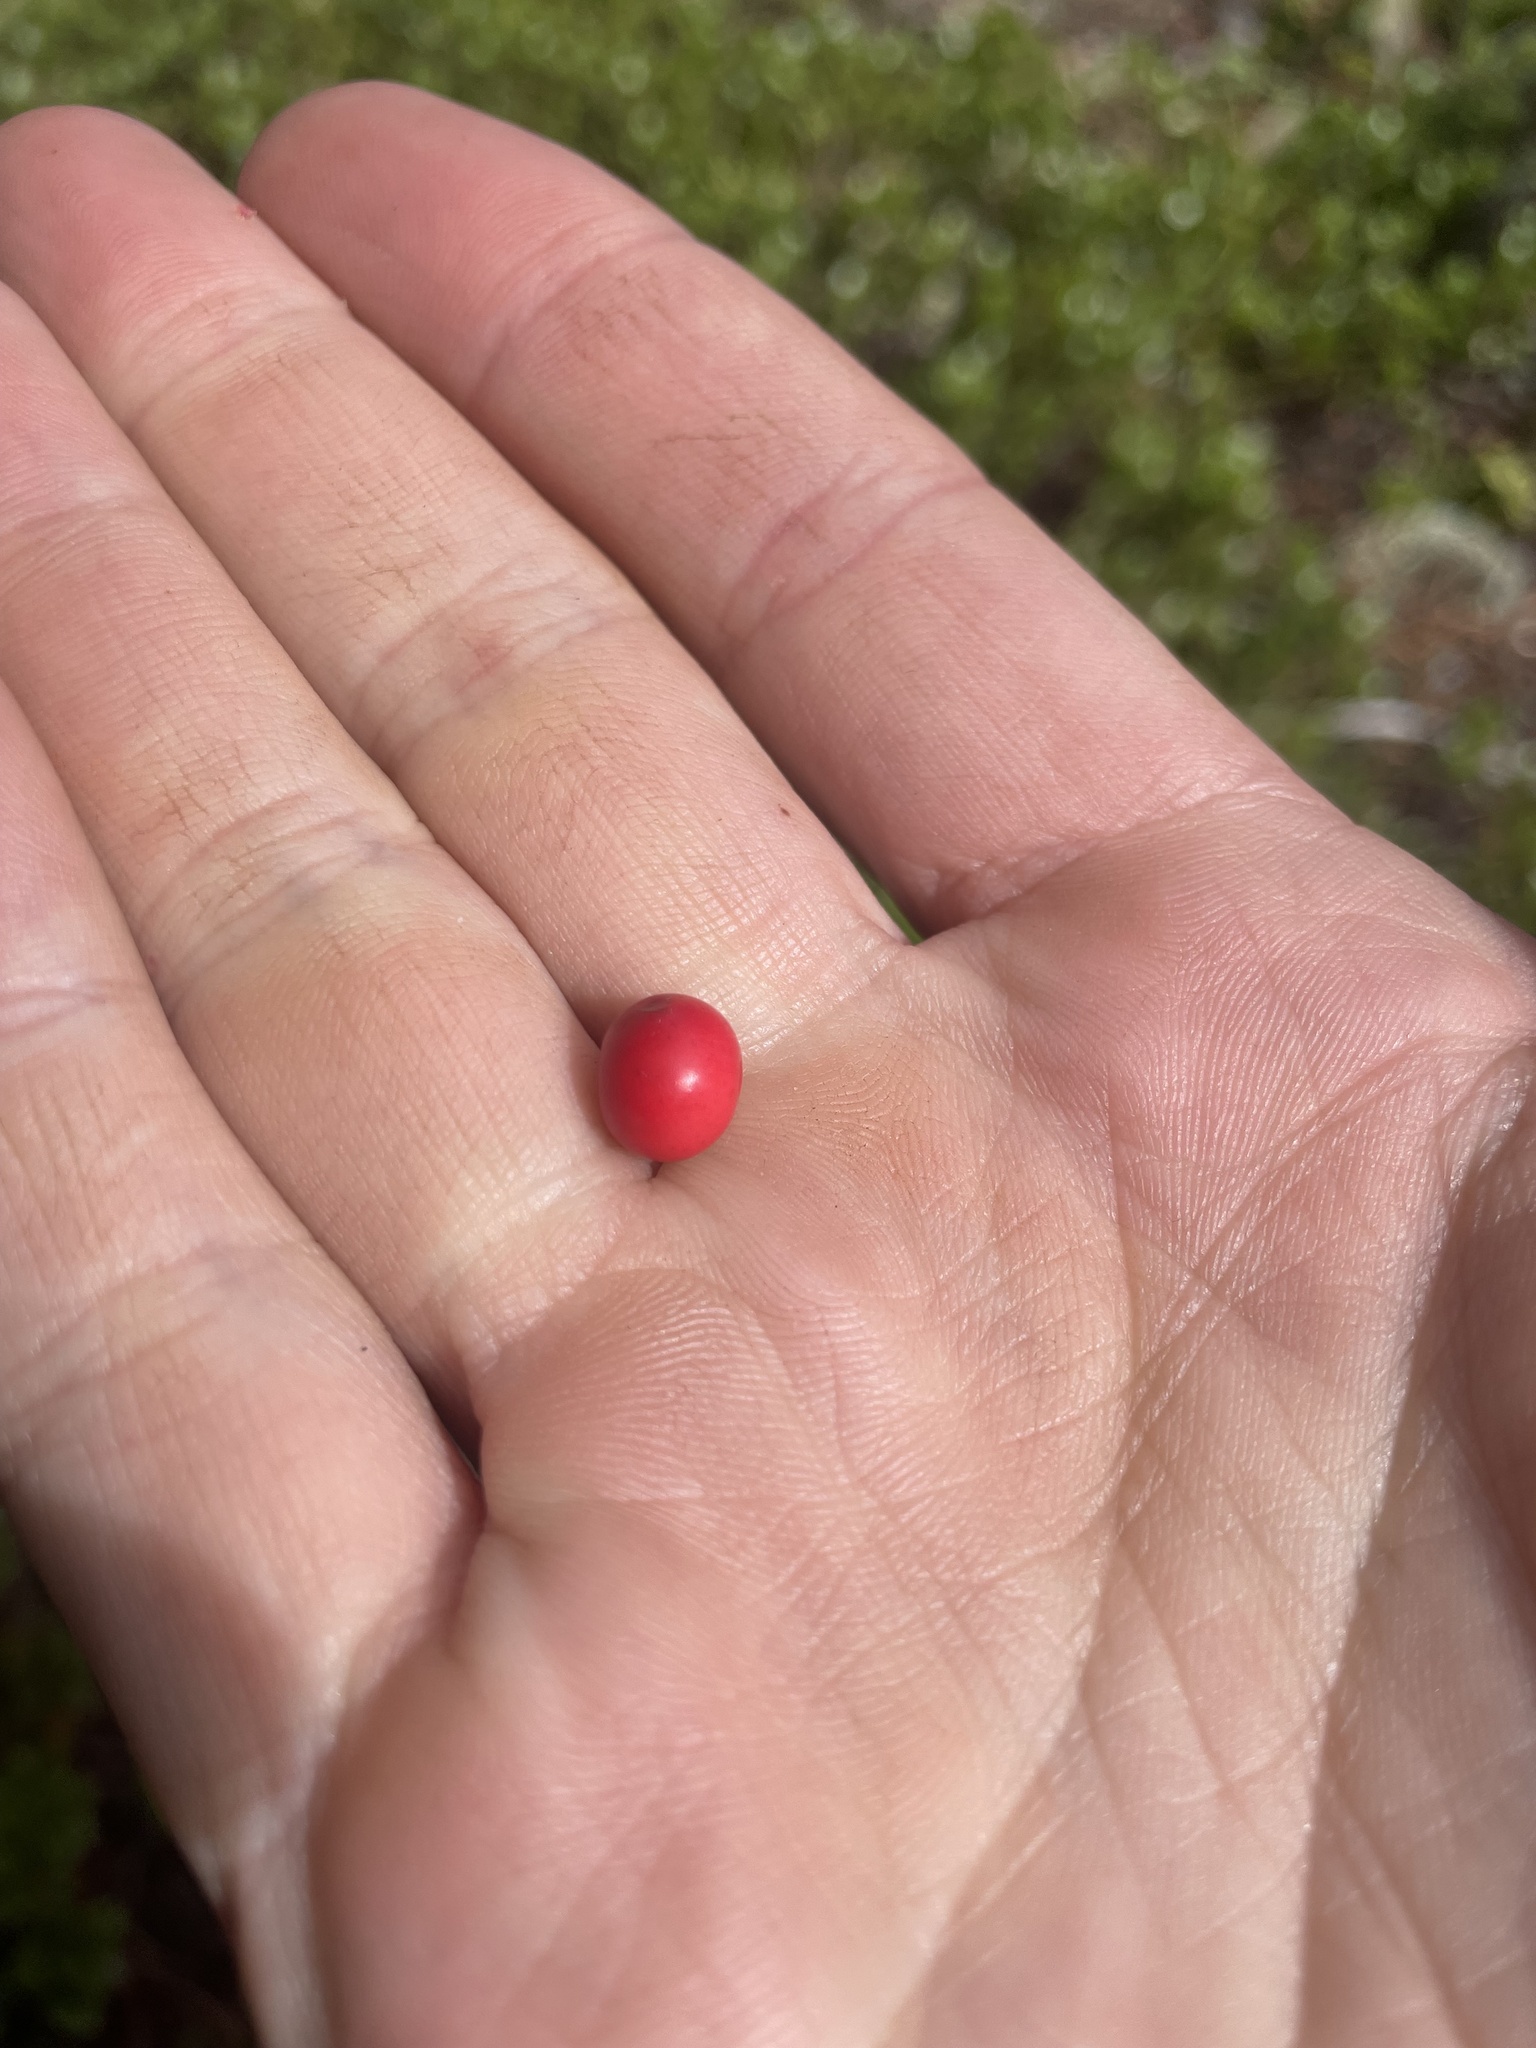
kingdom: Plantae
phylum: Tracheophyta
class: Magnoliopsida
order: Ericales
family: Ericaceae
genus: Arctostaphylos
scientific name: Arctostaphylos uva-ursi
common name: Bearberry
